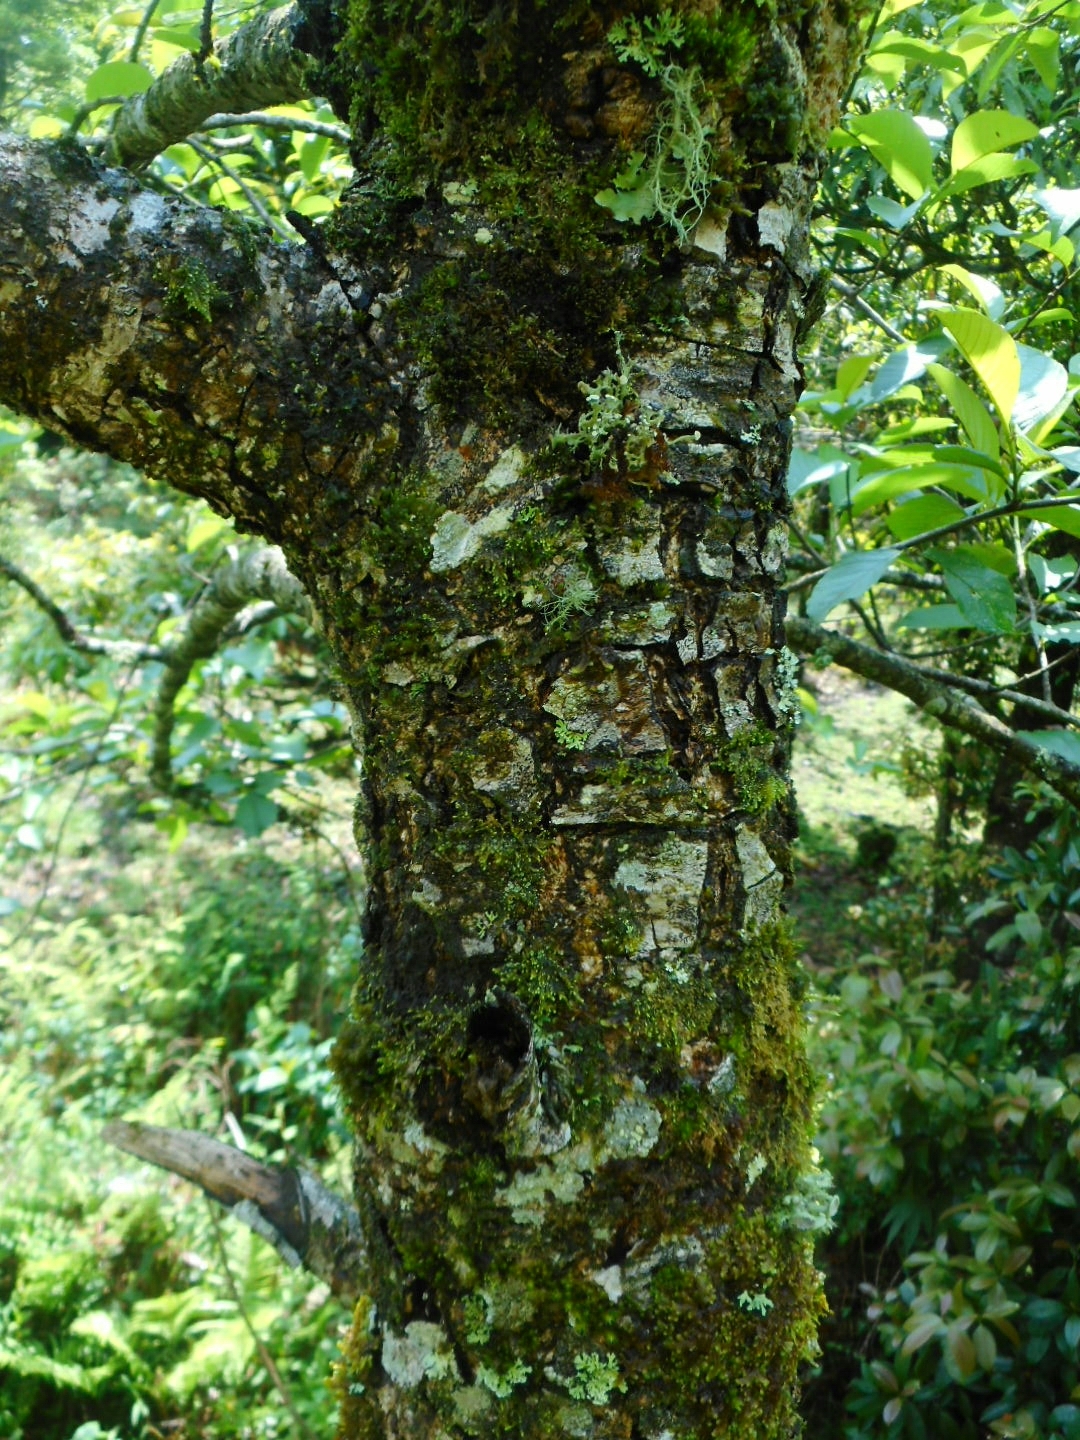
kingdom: Plantae
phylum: Tracheophyta
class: Magnoliopsida
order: Fagales
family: Betulaceae
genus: Alnus
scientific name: Alnus nepalensis
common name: Nepal alder
